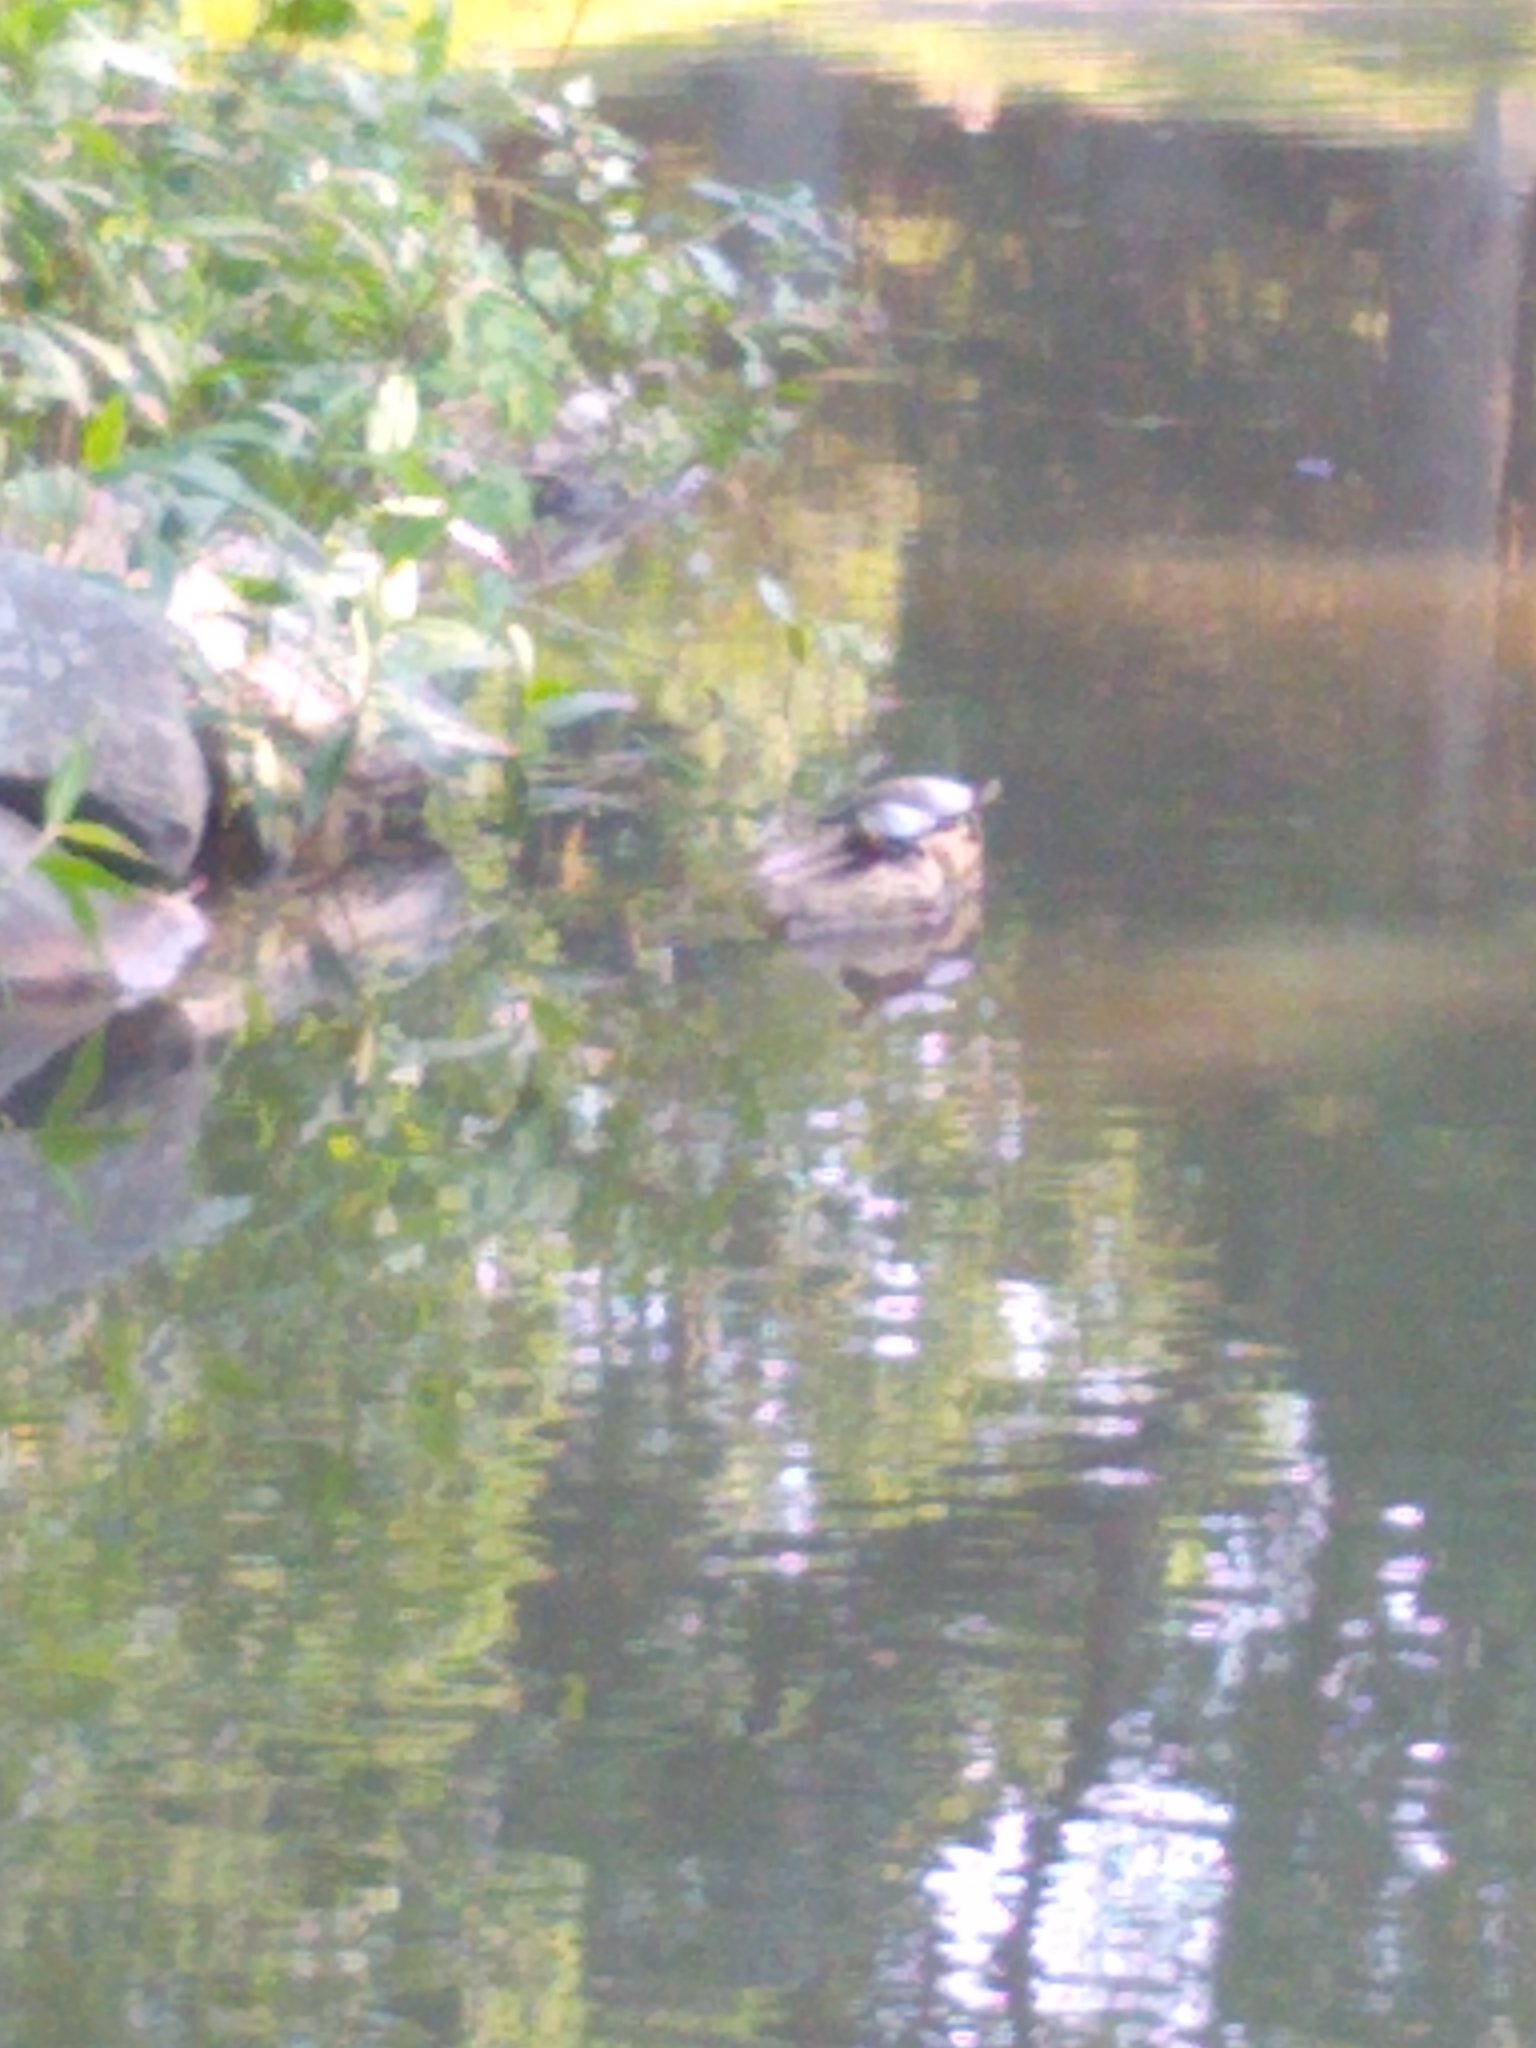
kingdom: Animalia
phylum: Chordata
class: Testudines
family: Emydidae
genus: Chrysemys
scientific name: Chrysemys picta
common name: Painted turtle
